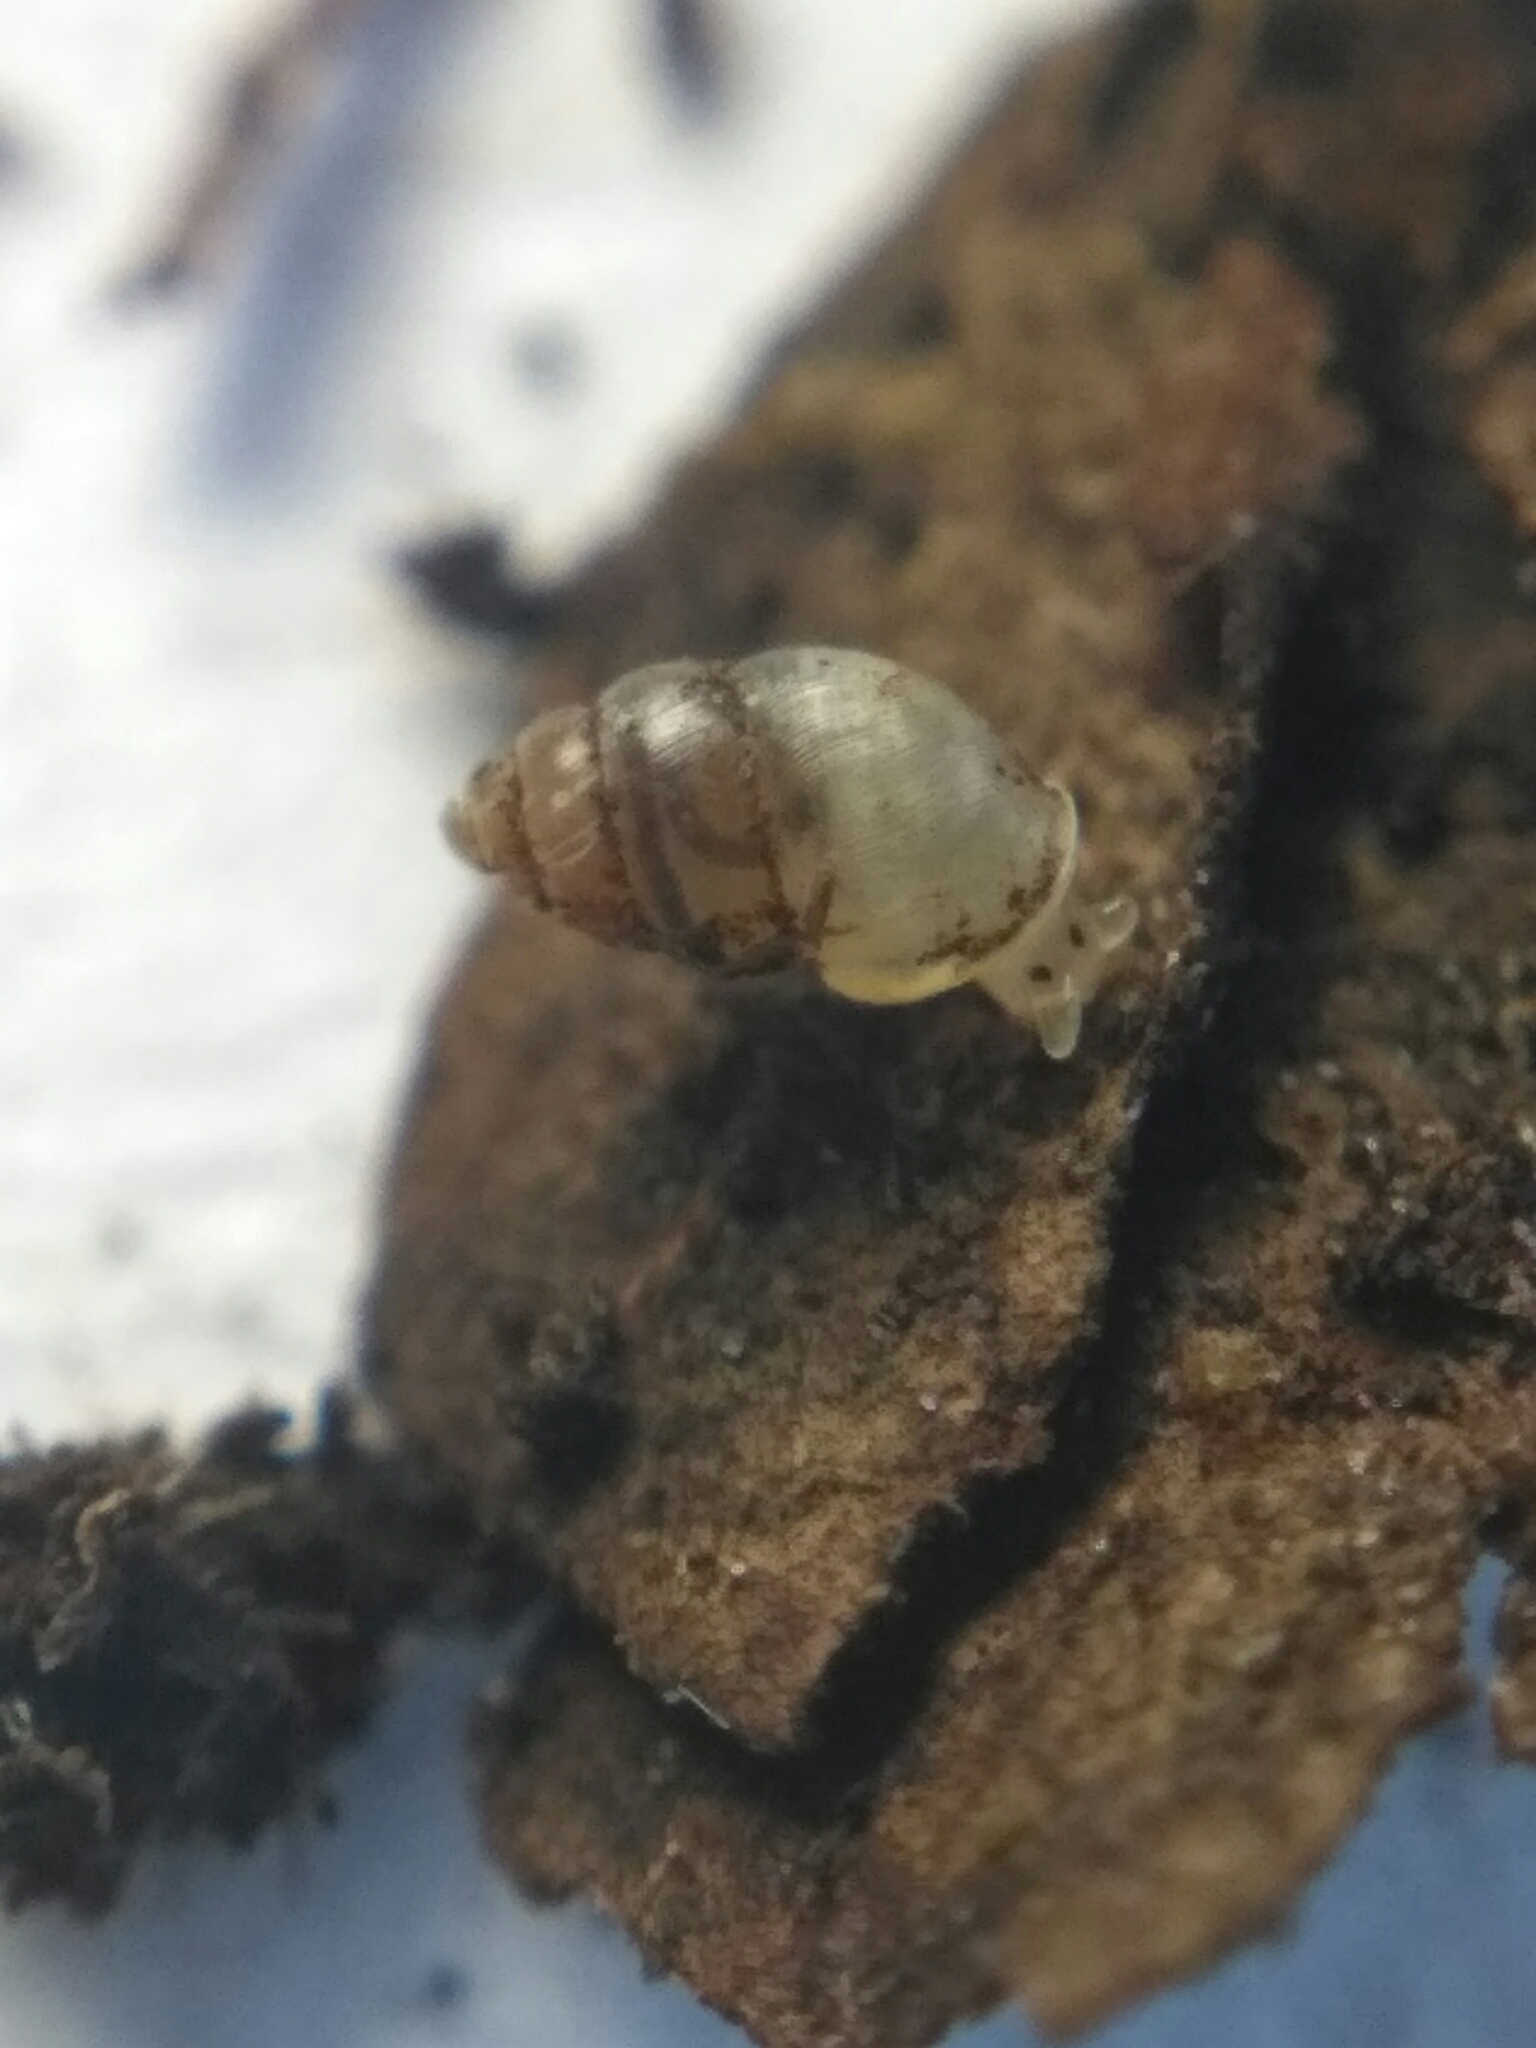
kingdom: Animalia
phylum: Mollusca
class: Gastropoda
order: Ellobiida
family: Ellobiidae
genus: Carychium
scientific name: Carychium minimum
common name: Short-toothed herald snail
